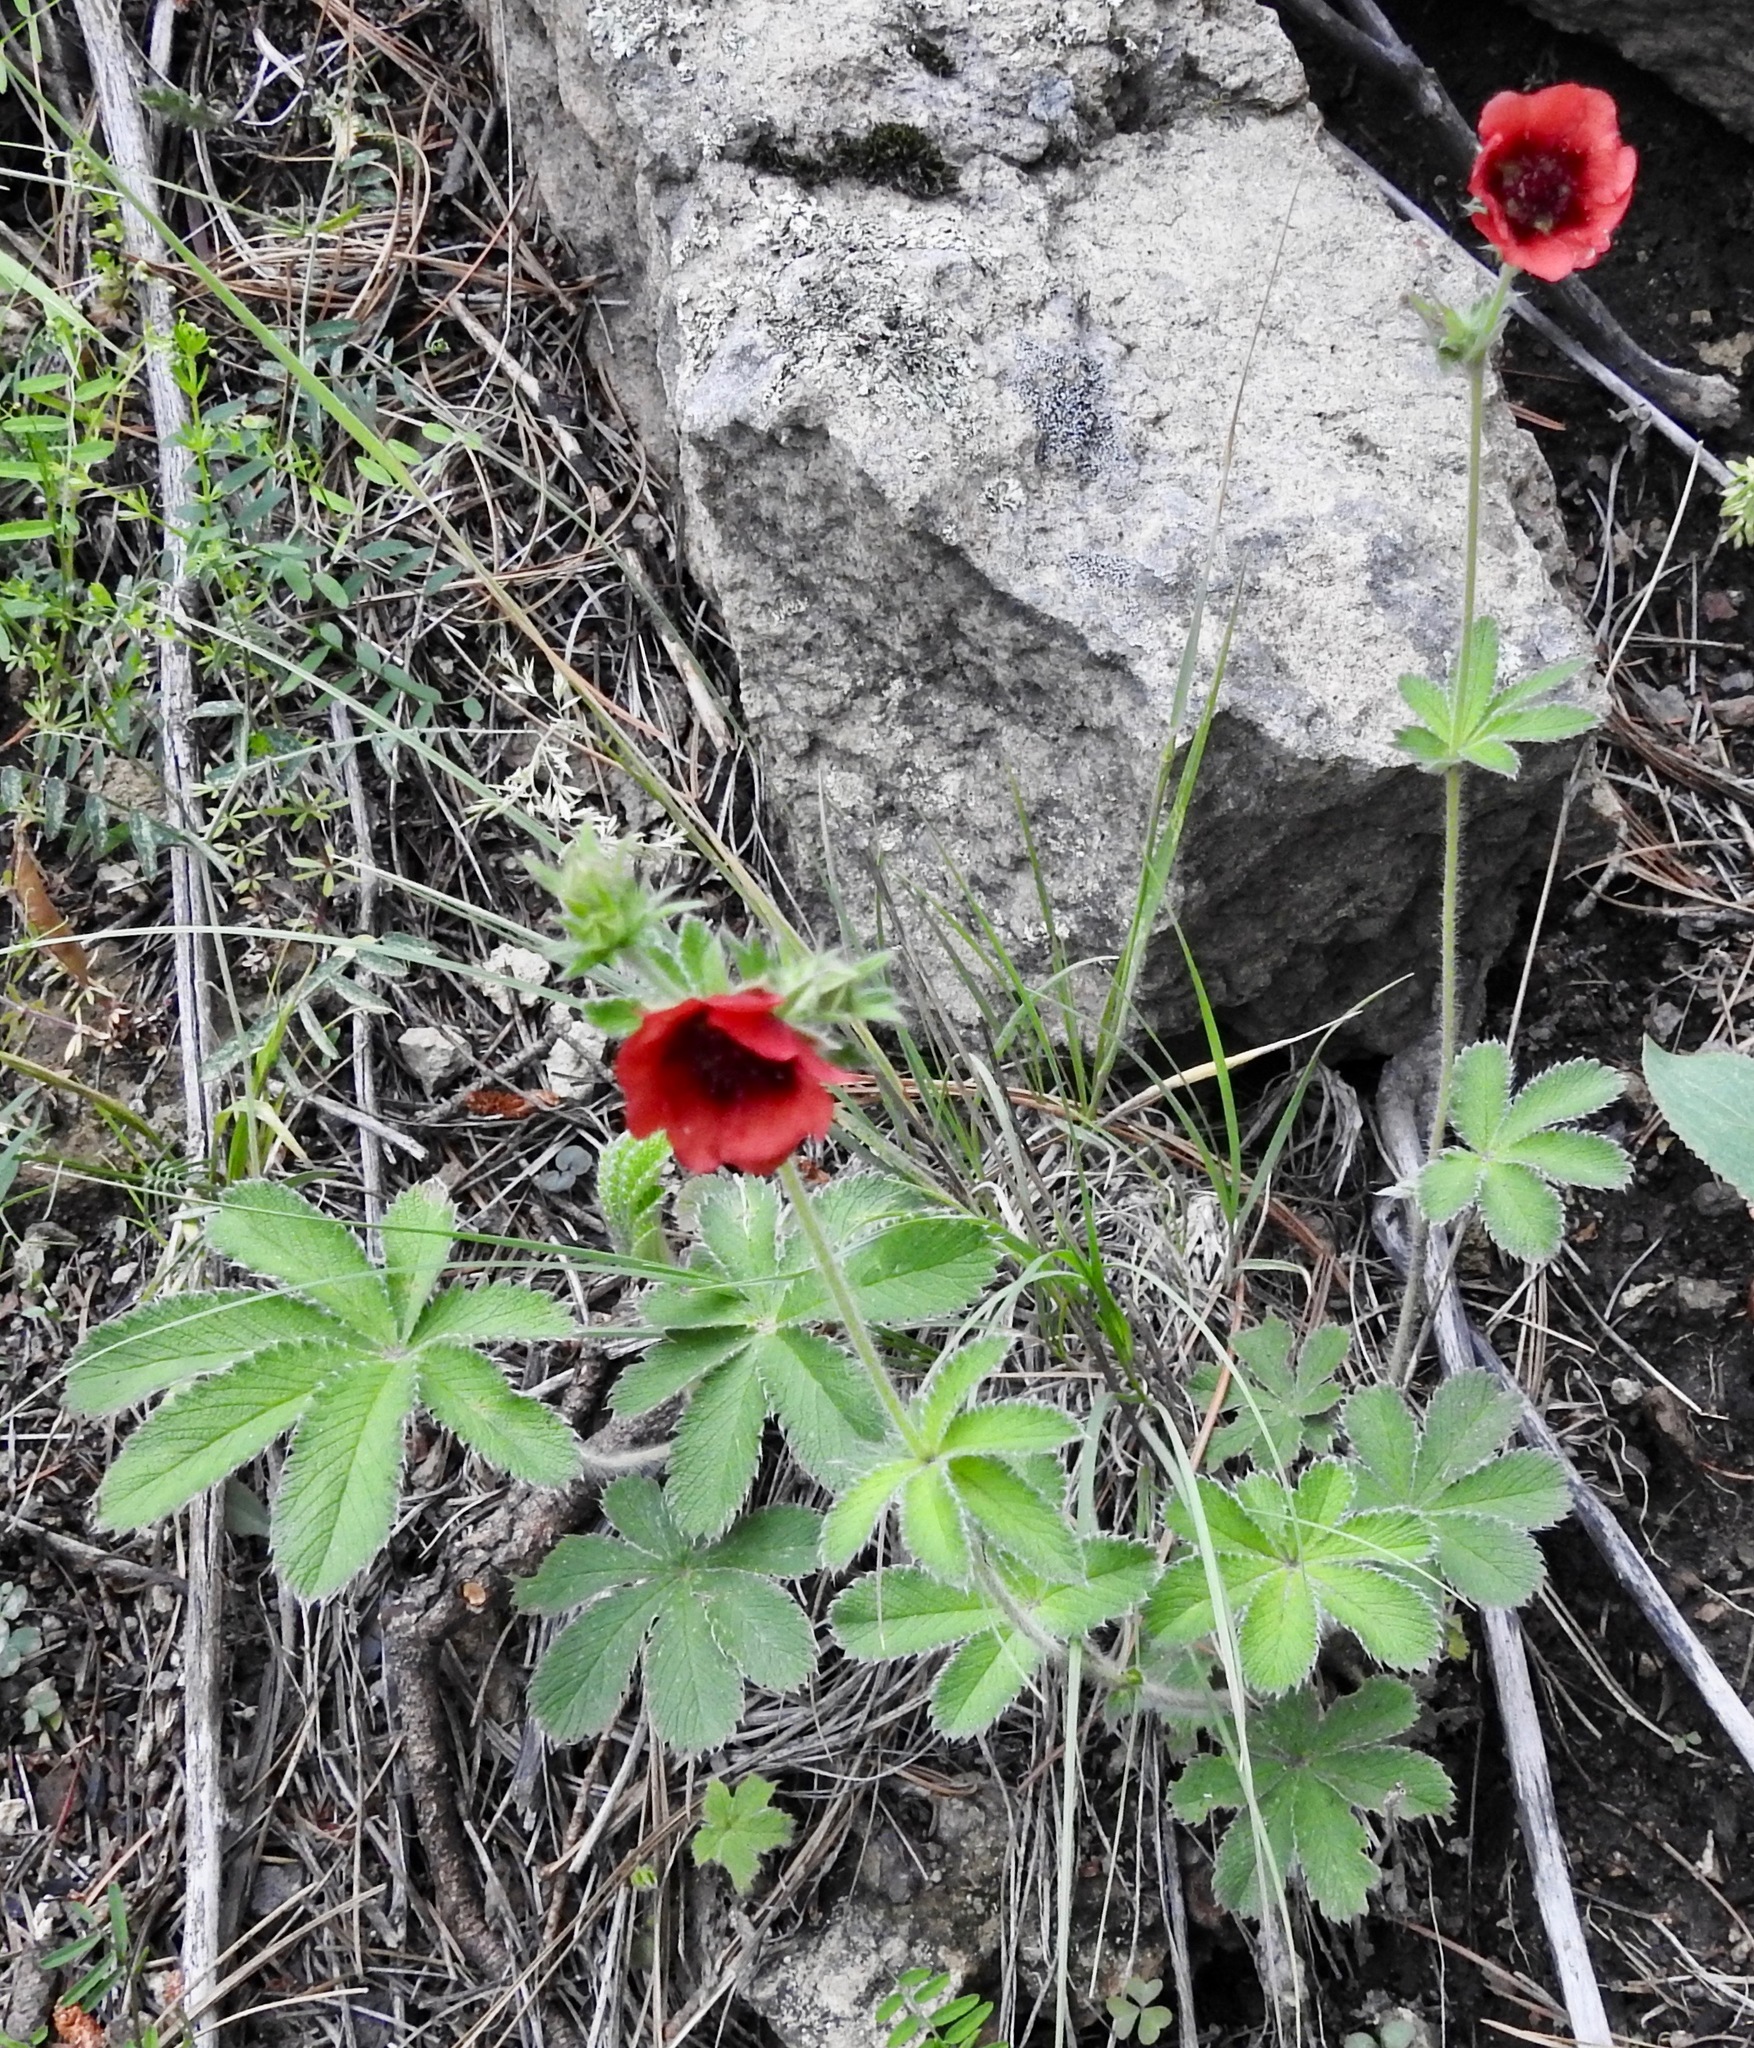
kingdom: Plantae
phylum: Tracheophyta
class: Magnoliopsida
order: Rosales
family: Rosaceae
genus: Potentilla
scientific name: Potentilla thurberi
